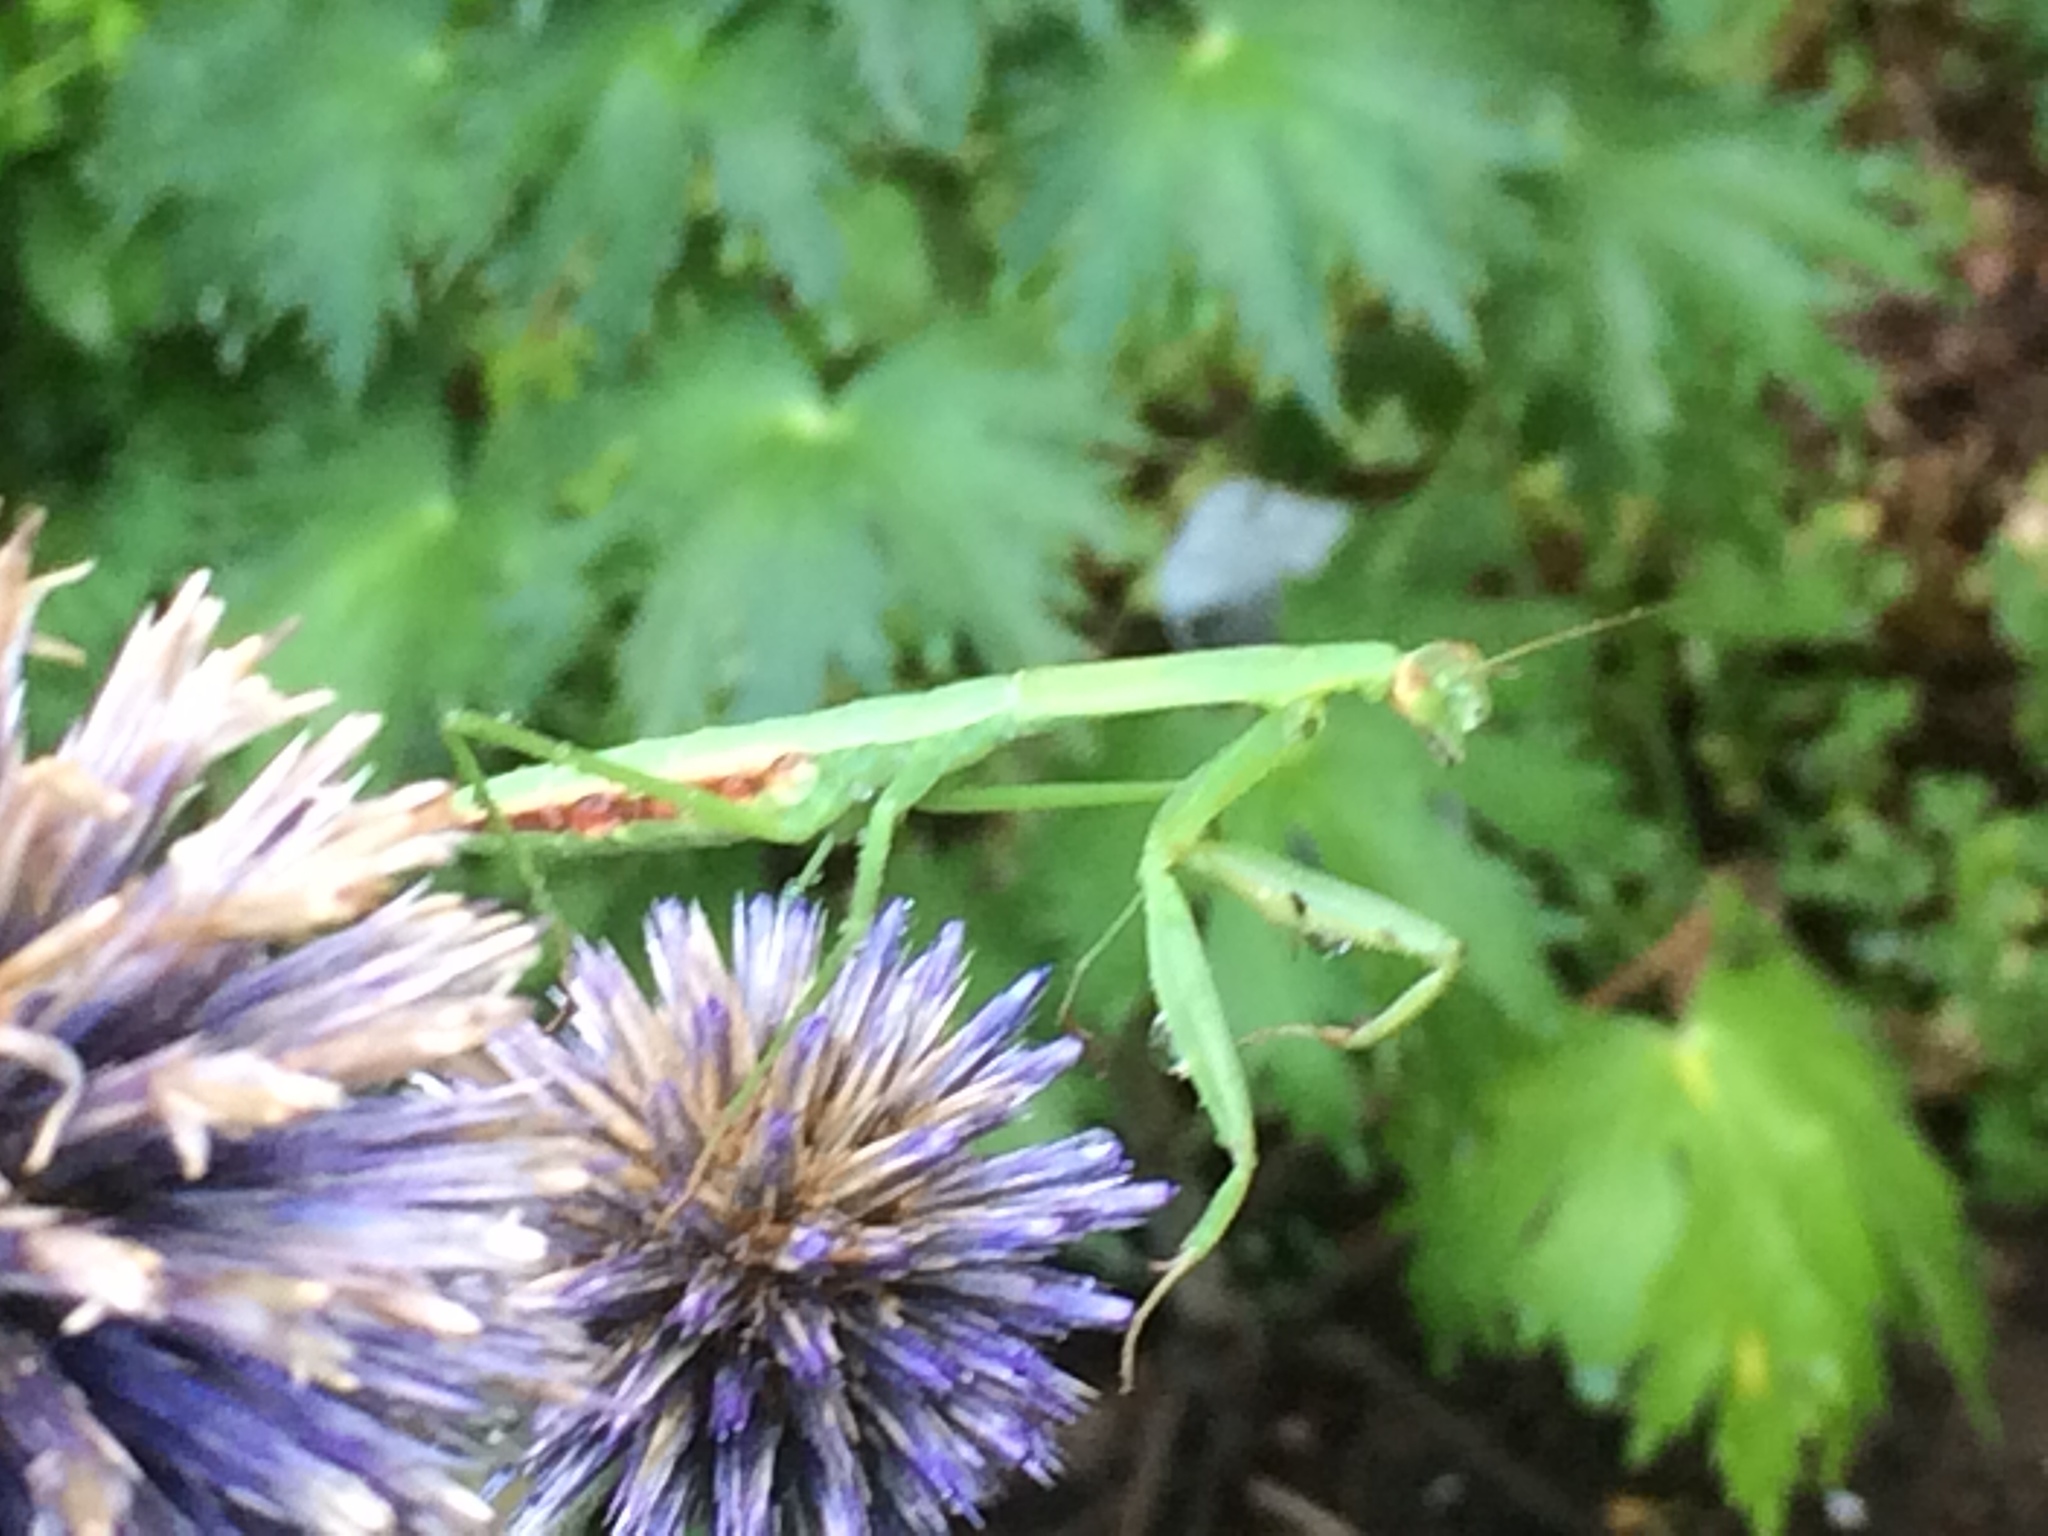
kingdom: Animalia
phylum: Arthropoda
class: Insecta
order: Mantodea
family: Mantidae
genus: Tenodera
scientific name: Tenodera sinensis
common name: Chinese mantis
